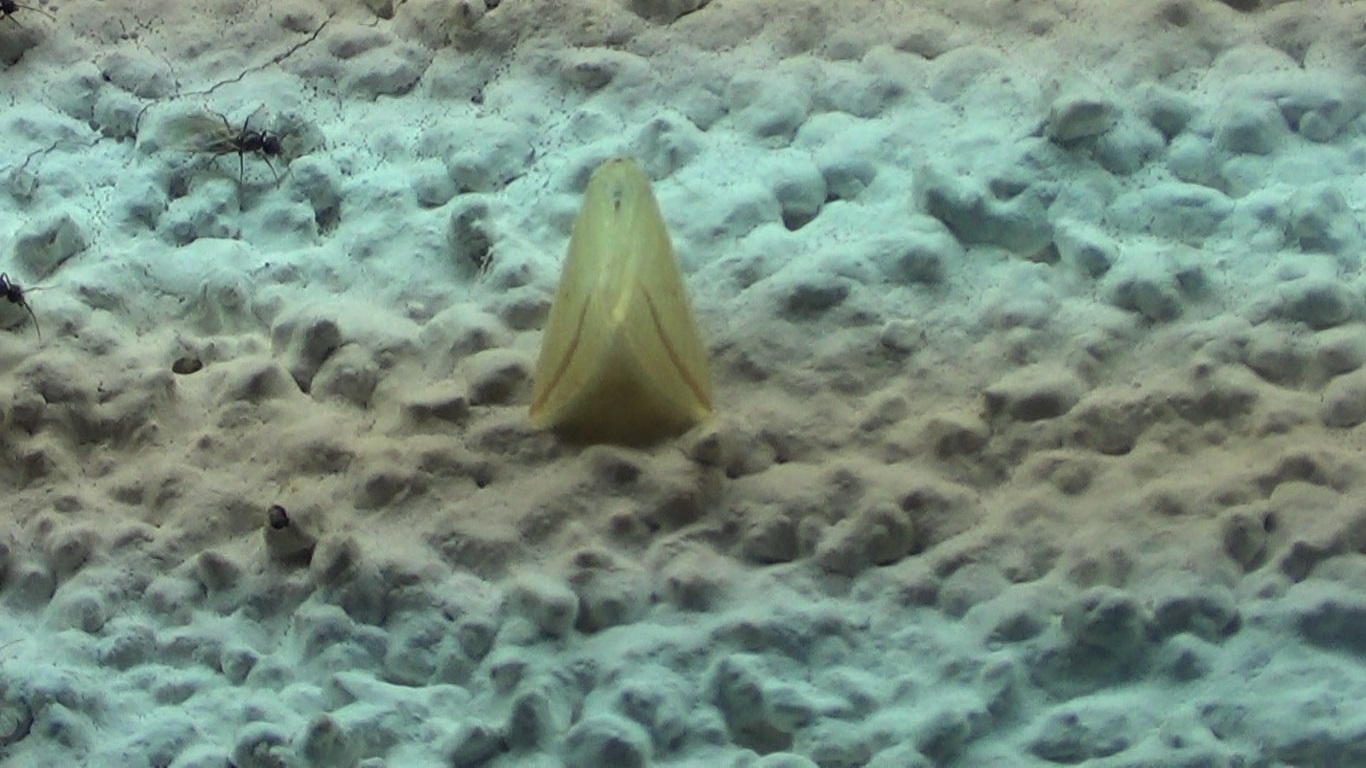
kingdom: Animalia
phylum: Arthropoda
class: Insecta
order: Lepidoptera
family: Geometridae
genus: Rhodometra
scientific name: Rhodometra sacraria
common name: Vestal
